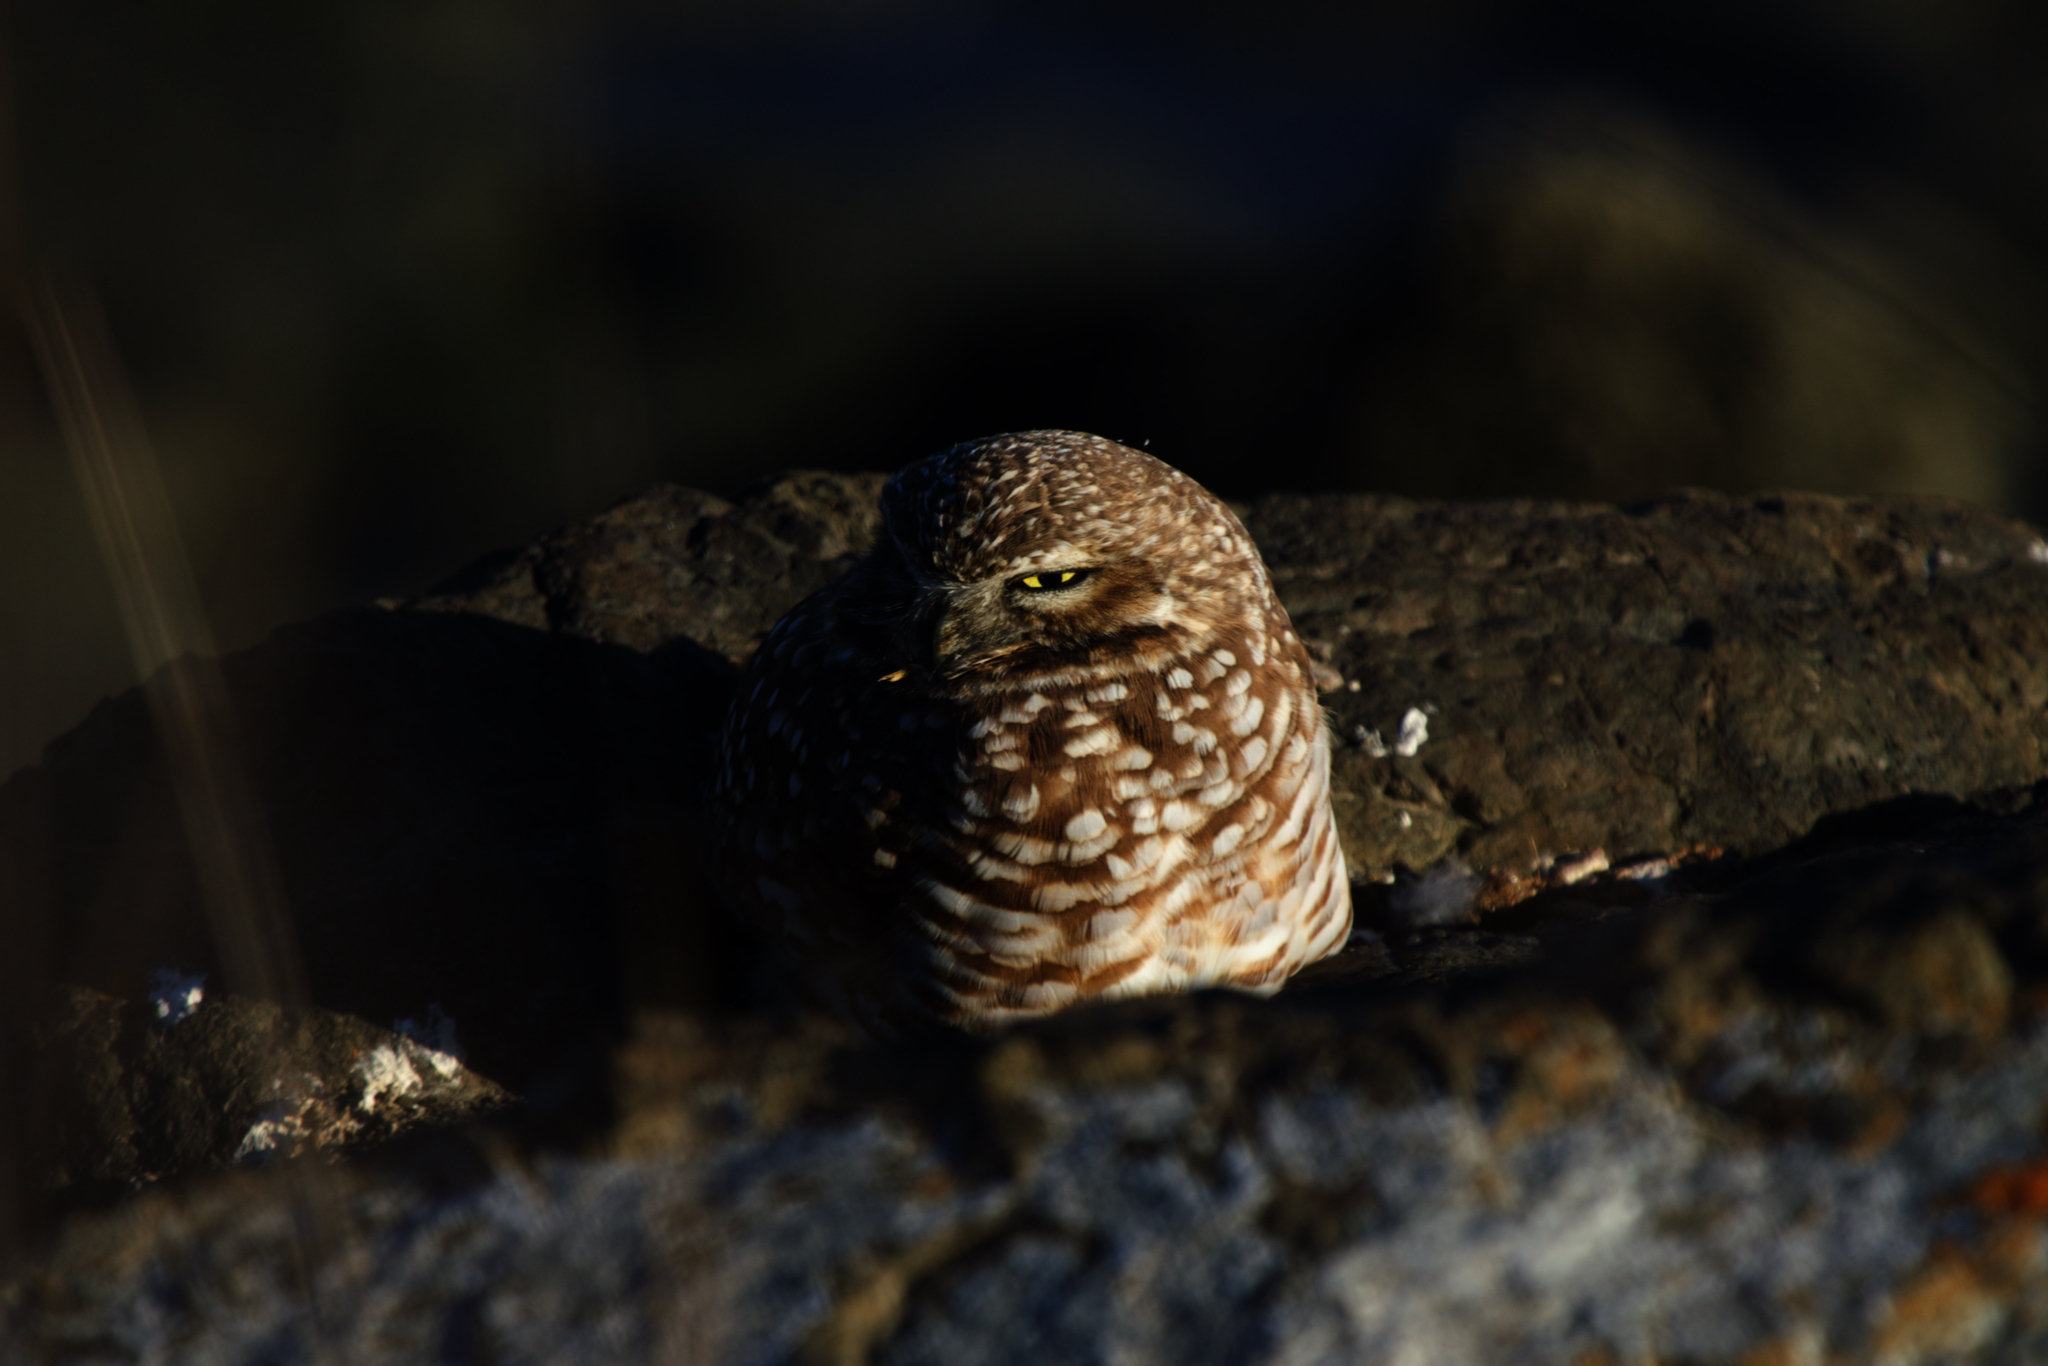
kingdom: Animalia
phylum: Chordata
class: Aves
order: Strigiformes
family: Strigidae
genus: Athene
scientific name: Athene cunicularia
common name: Burrowing owl
